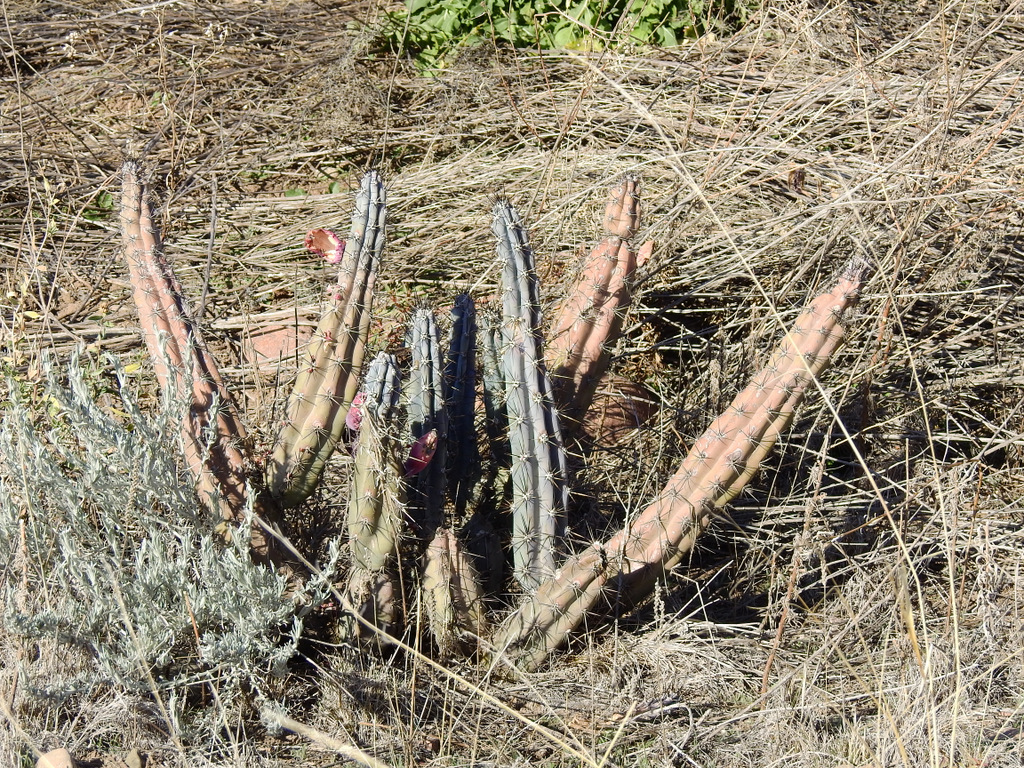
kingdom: Plantae
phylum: Tracheophyta
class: Magnoliopsida
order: Caryophyllales
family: Cactaceae
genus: Cereus
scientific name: Cereus aethiops
